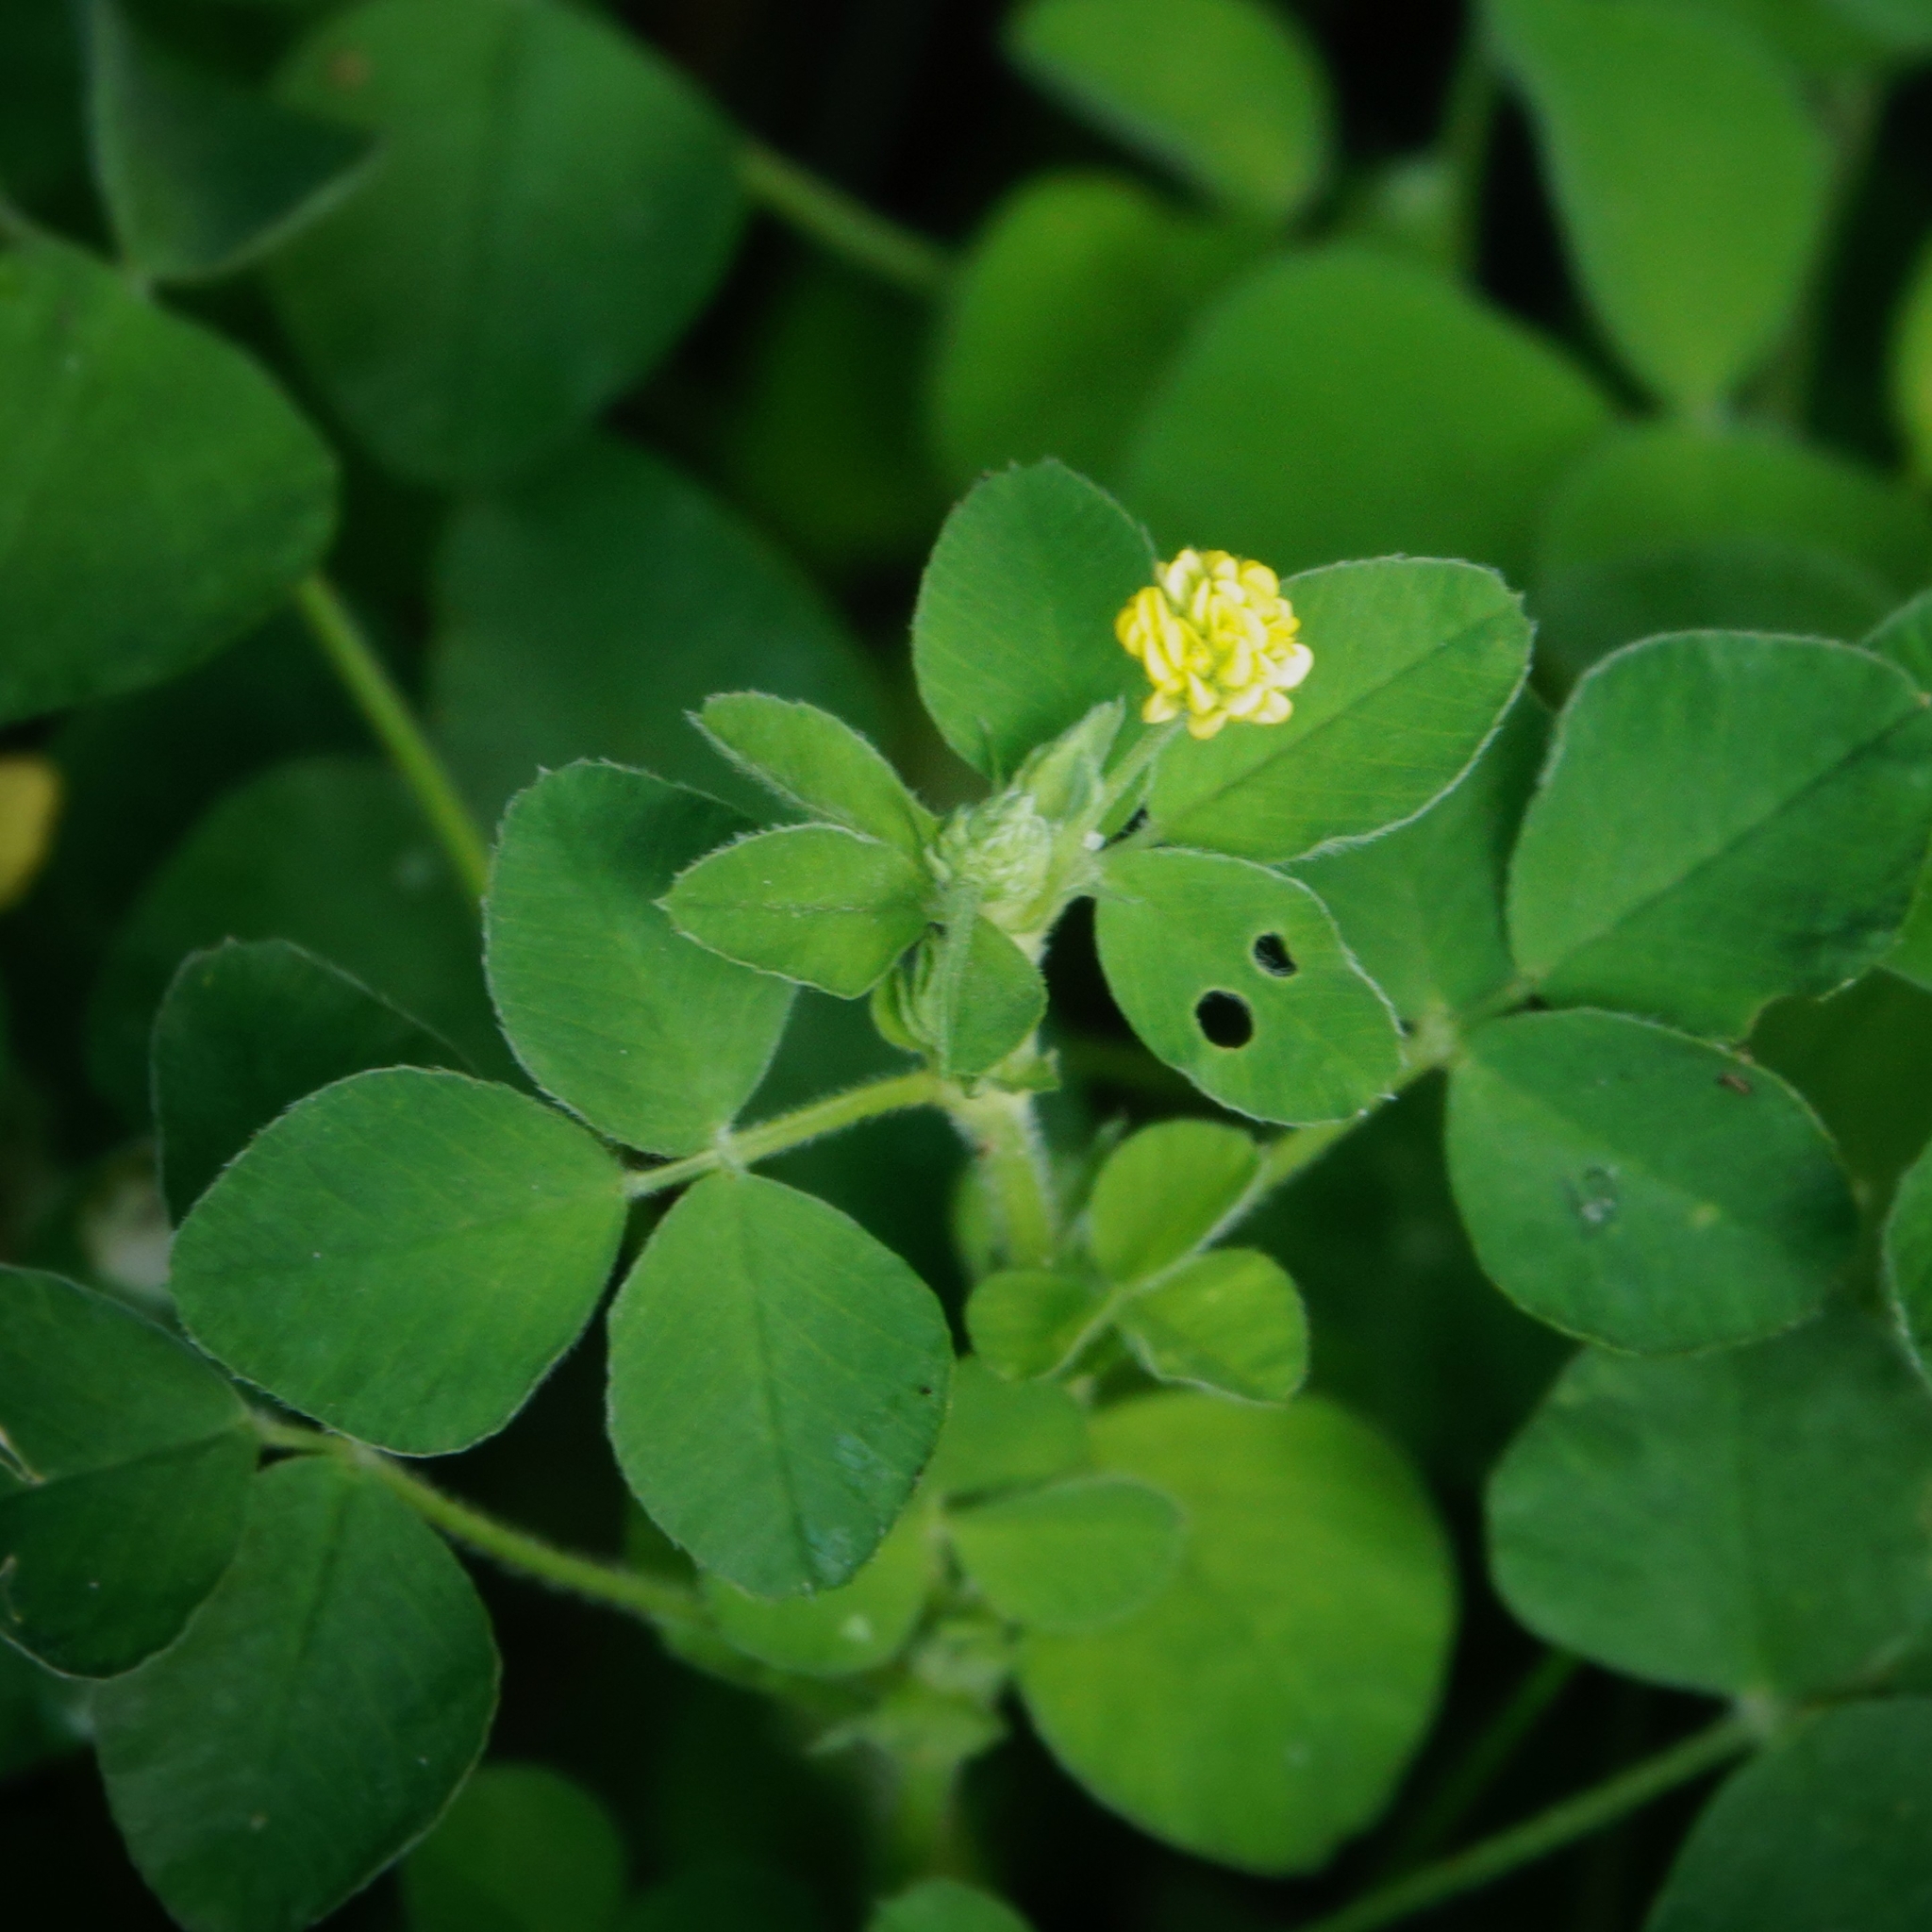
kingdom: Plantae
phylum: Tracheophyta
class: Magnoliopsida
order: Fabales
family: Fabaceae
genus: Medicago
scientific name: Medicago lupulina
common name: Black medick
